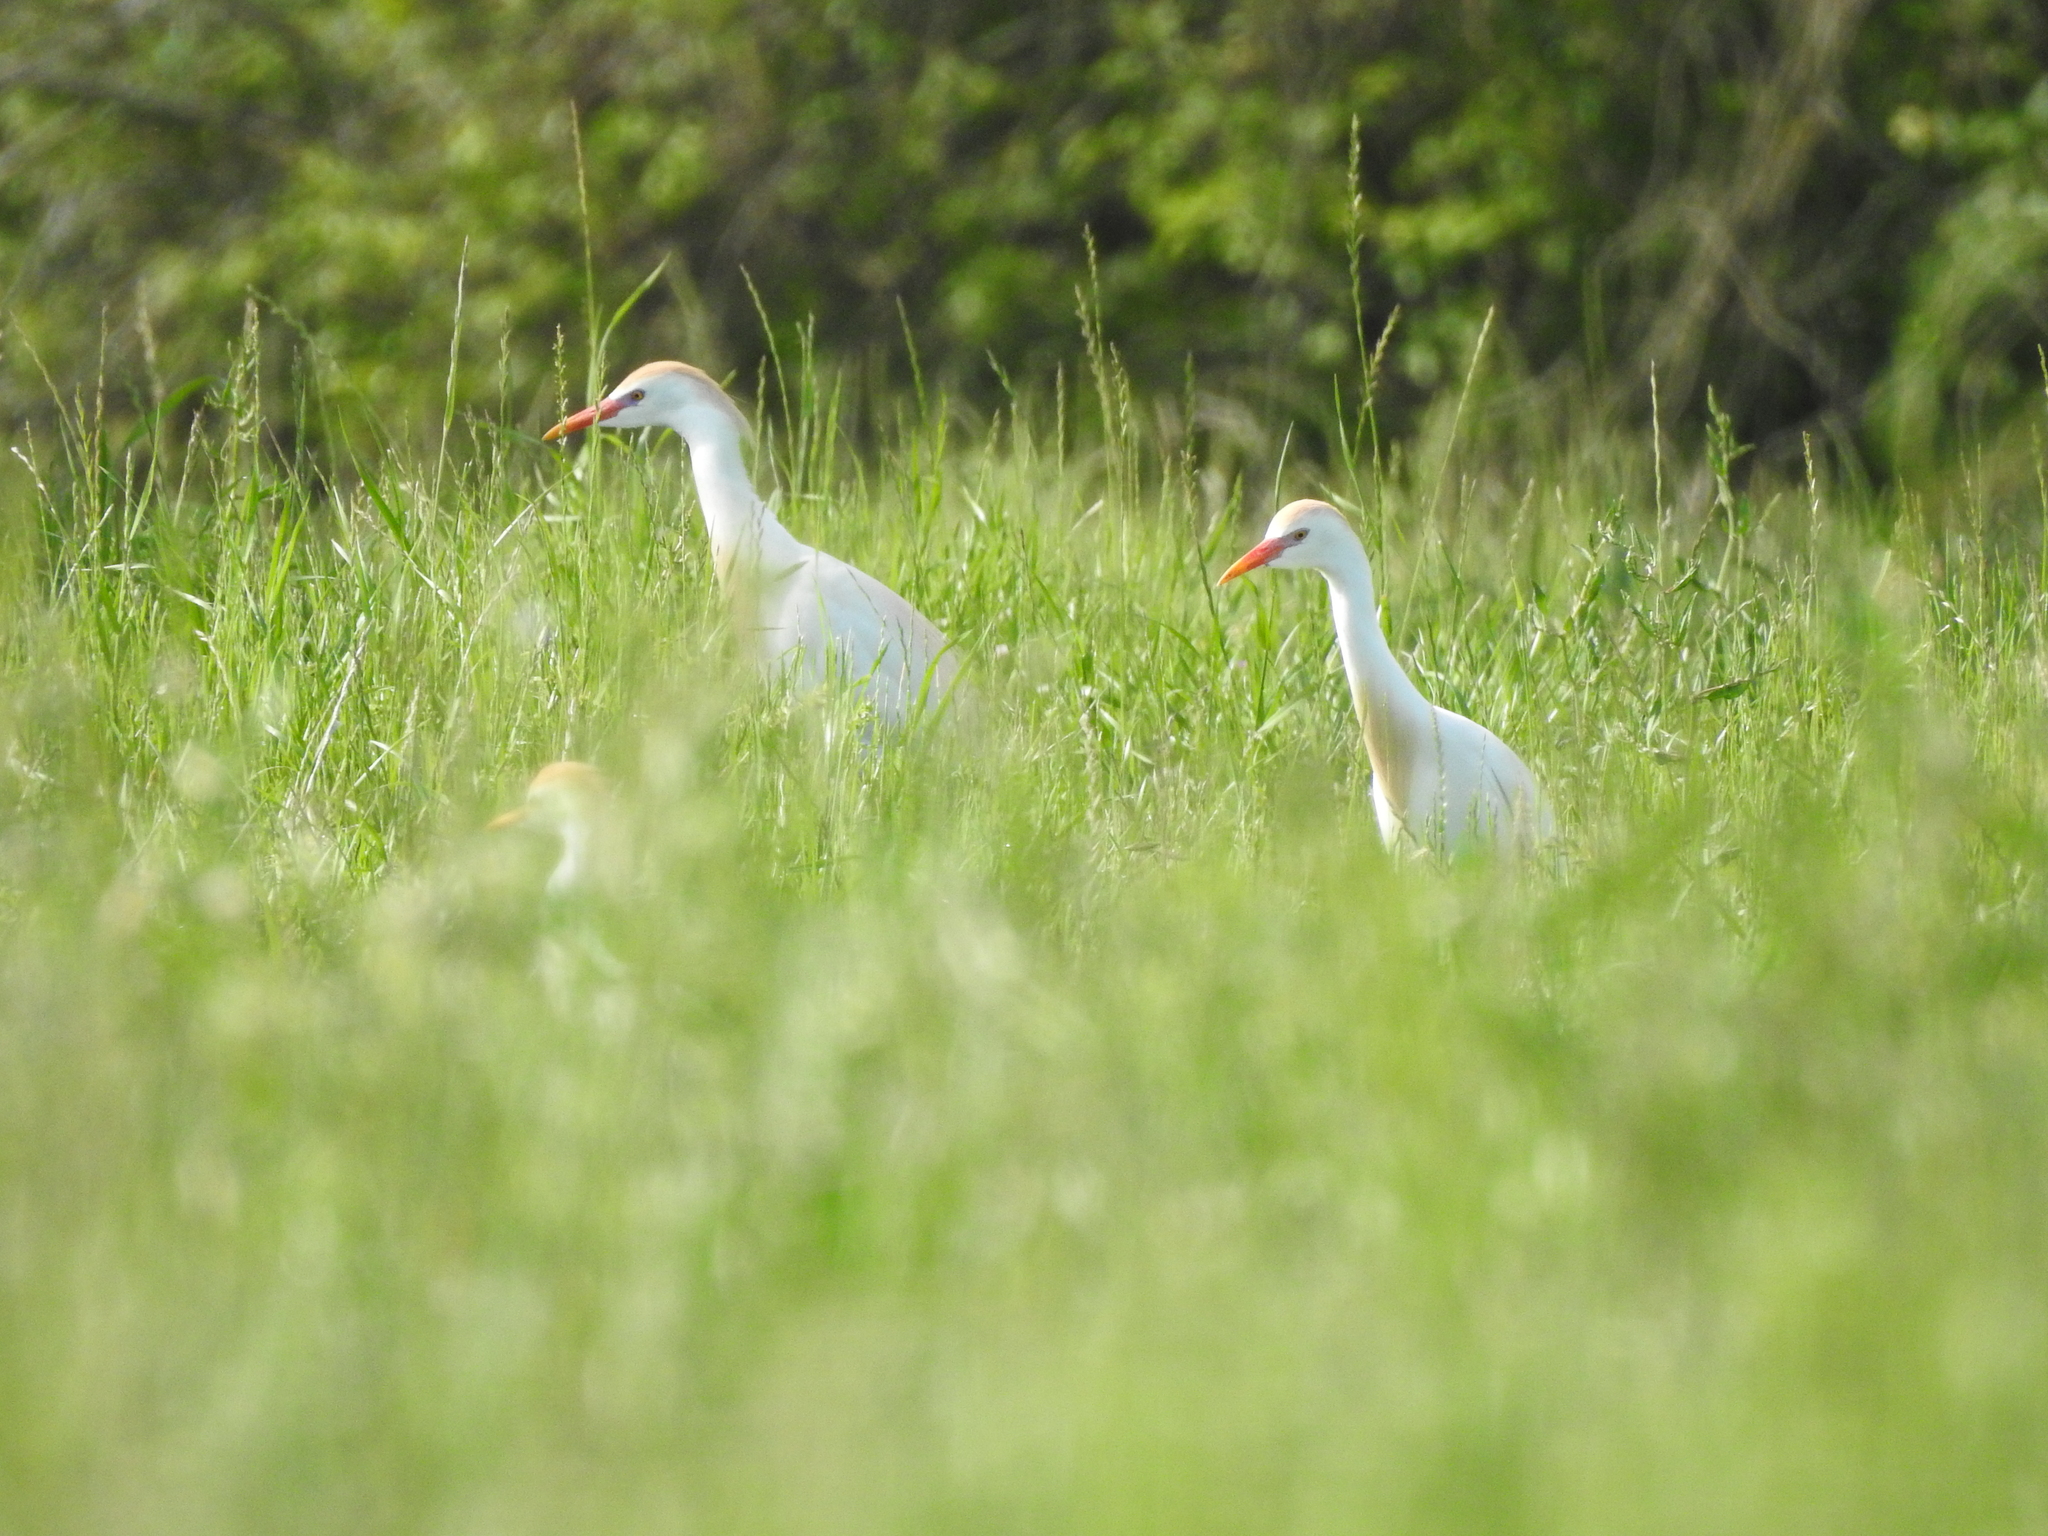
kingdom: Animalia
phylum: Chordata
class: Aves
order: Pelecaniformes
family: Ardeidae
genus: Bubulcus
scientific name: Bubulcus ibis
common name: Cattle egret
